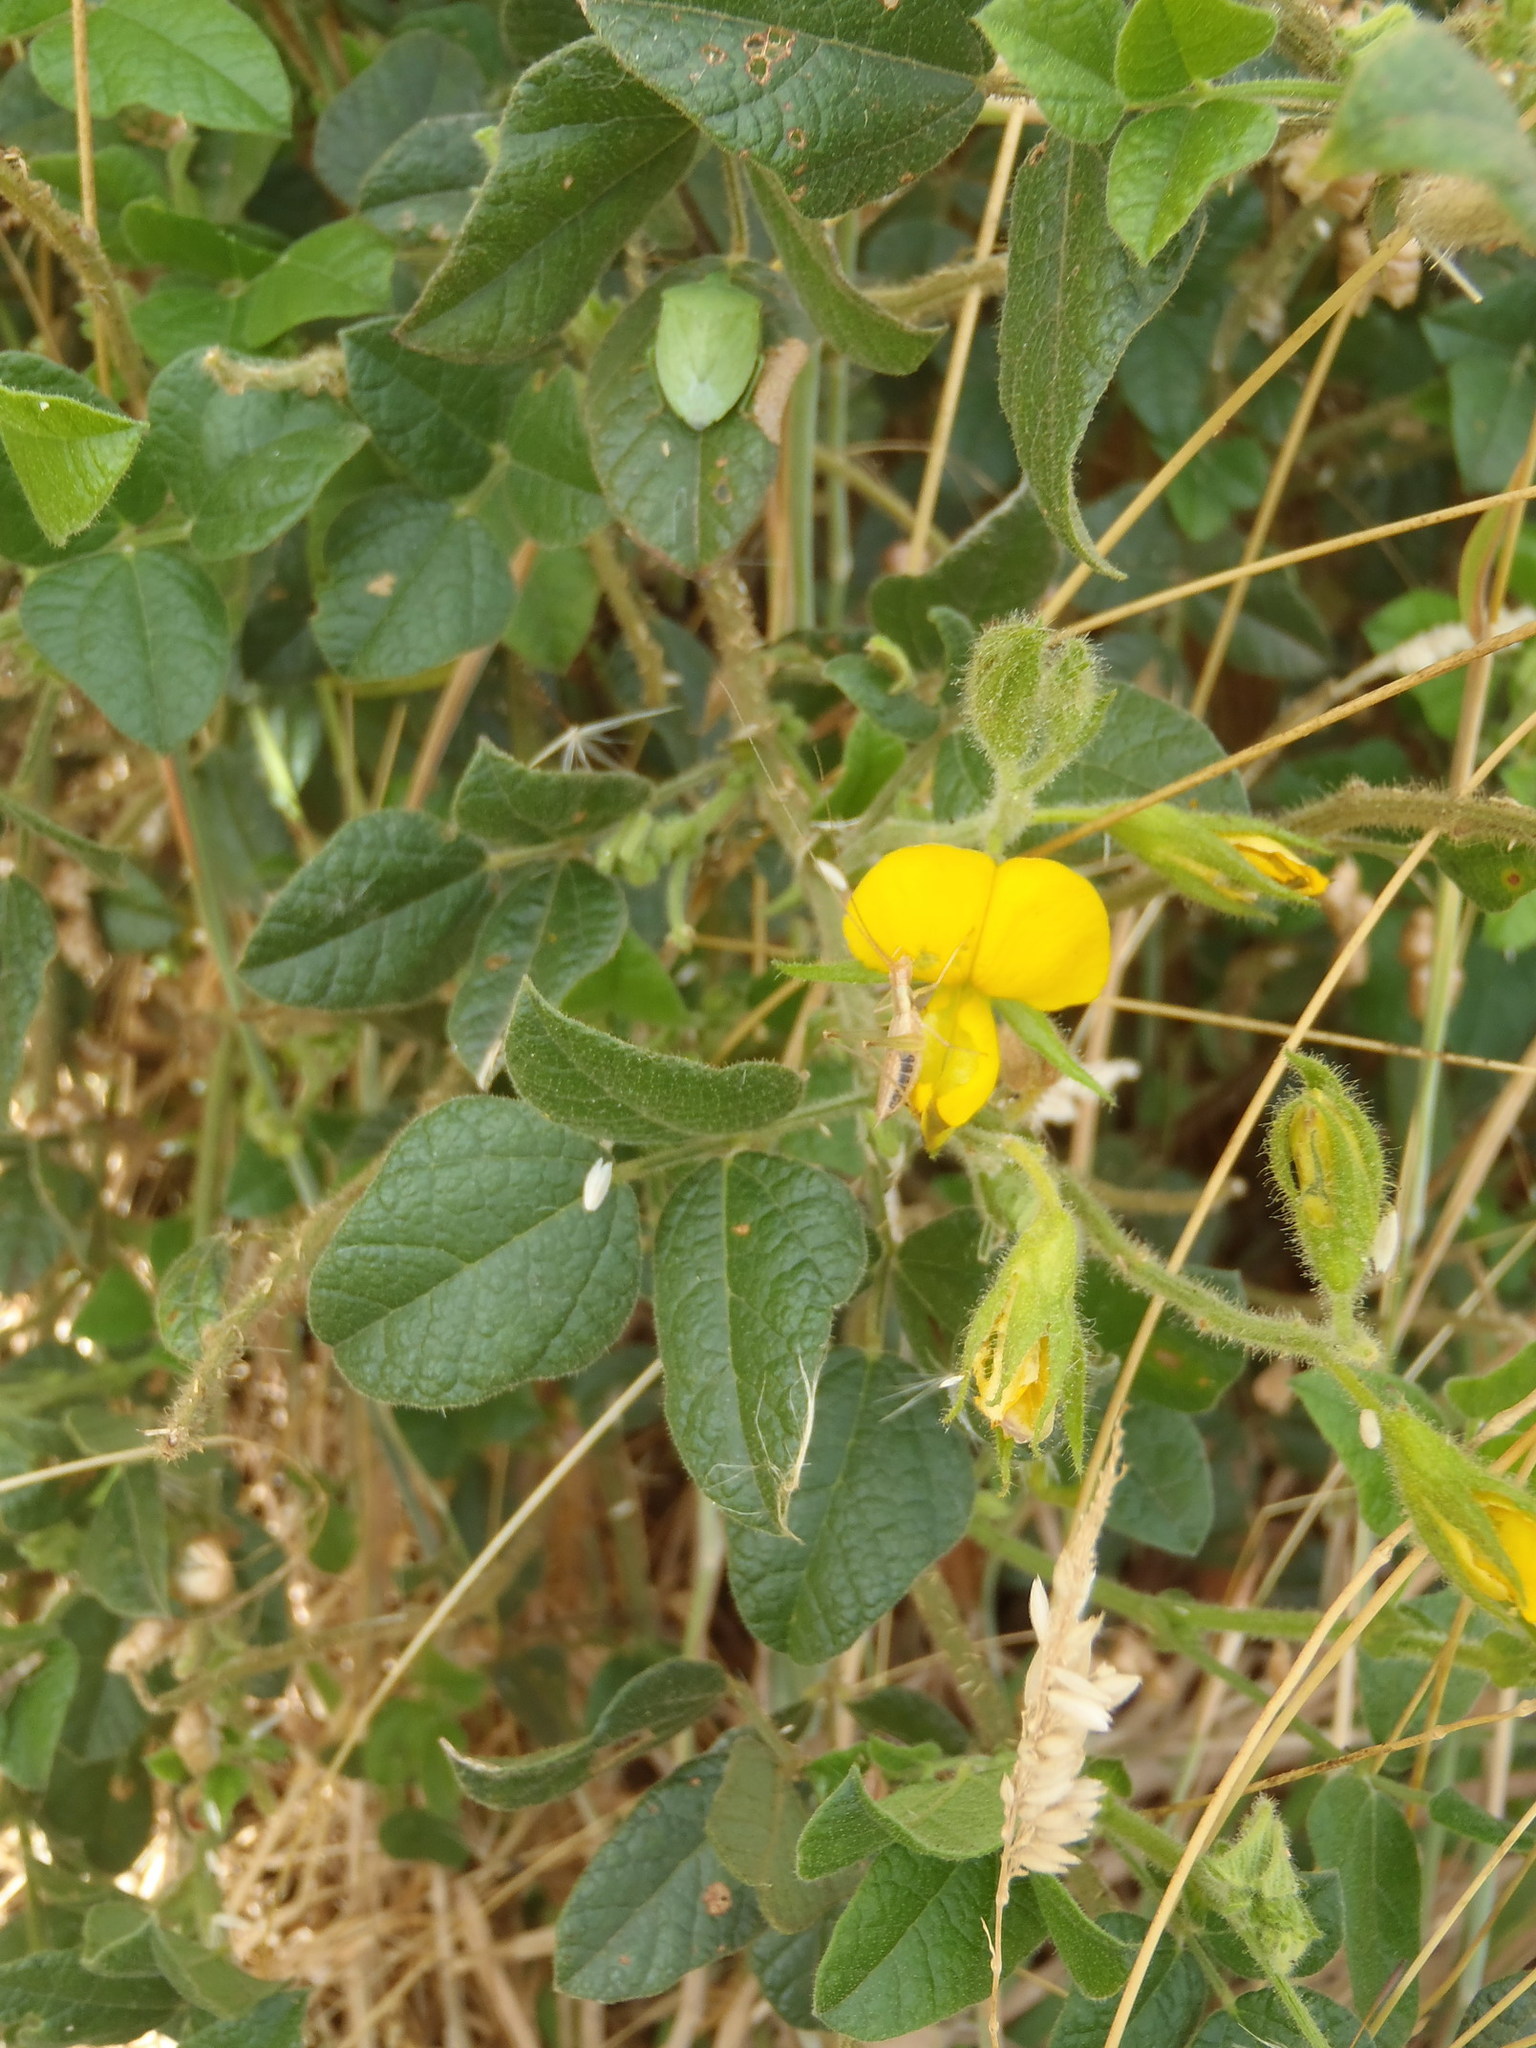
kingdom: Plantae
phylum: Tracheophyta
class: Magnoliopsida
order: Fabales
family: Fabaceae
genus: Bolusafra
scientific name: Bolusafra bituminosa
